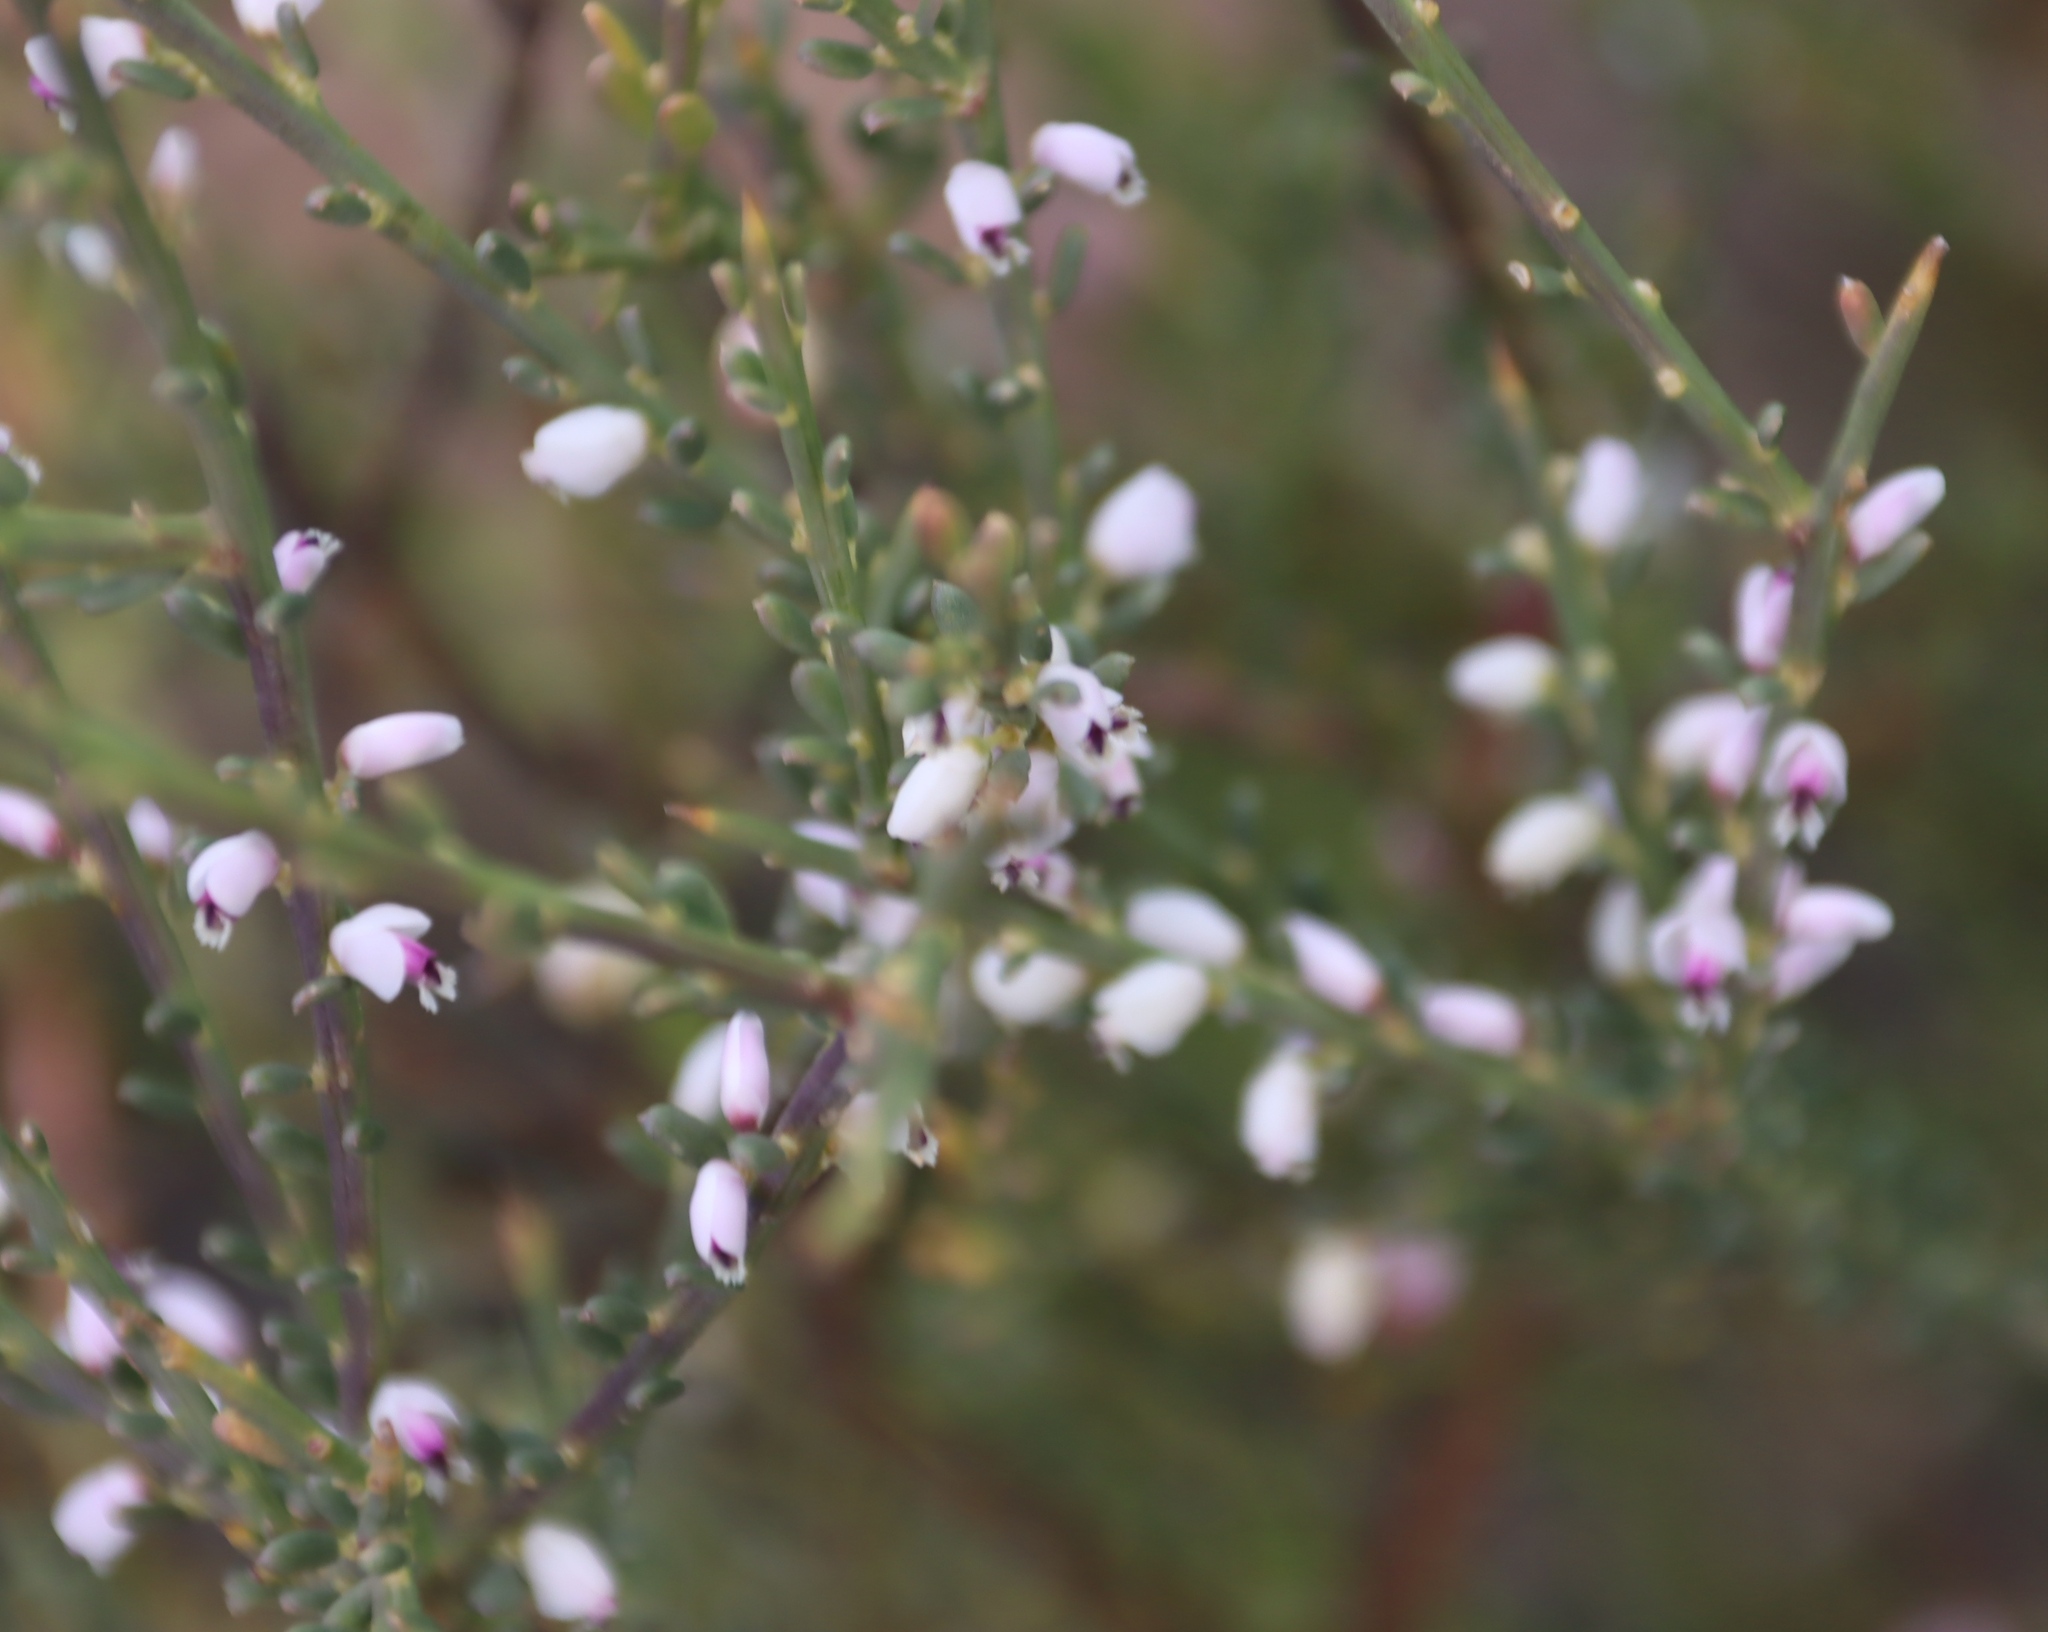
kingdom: Plantae
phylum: Tracheophyta
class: Magnoliopsida
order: Fabales
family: Polygalaceae
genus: Muraltia
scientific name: Muraltia spinosa
